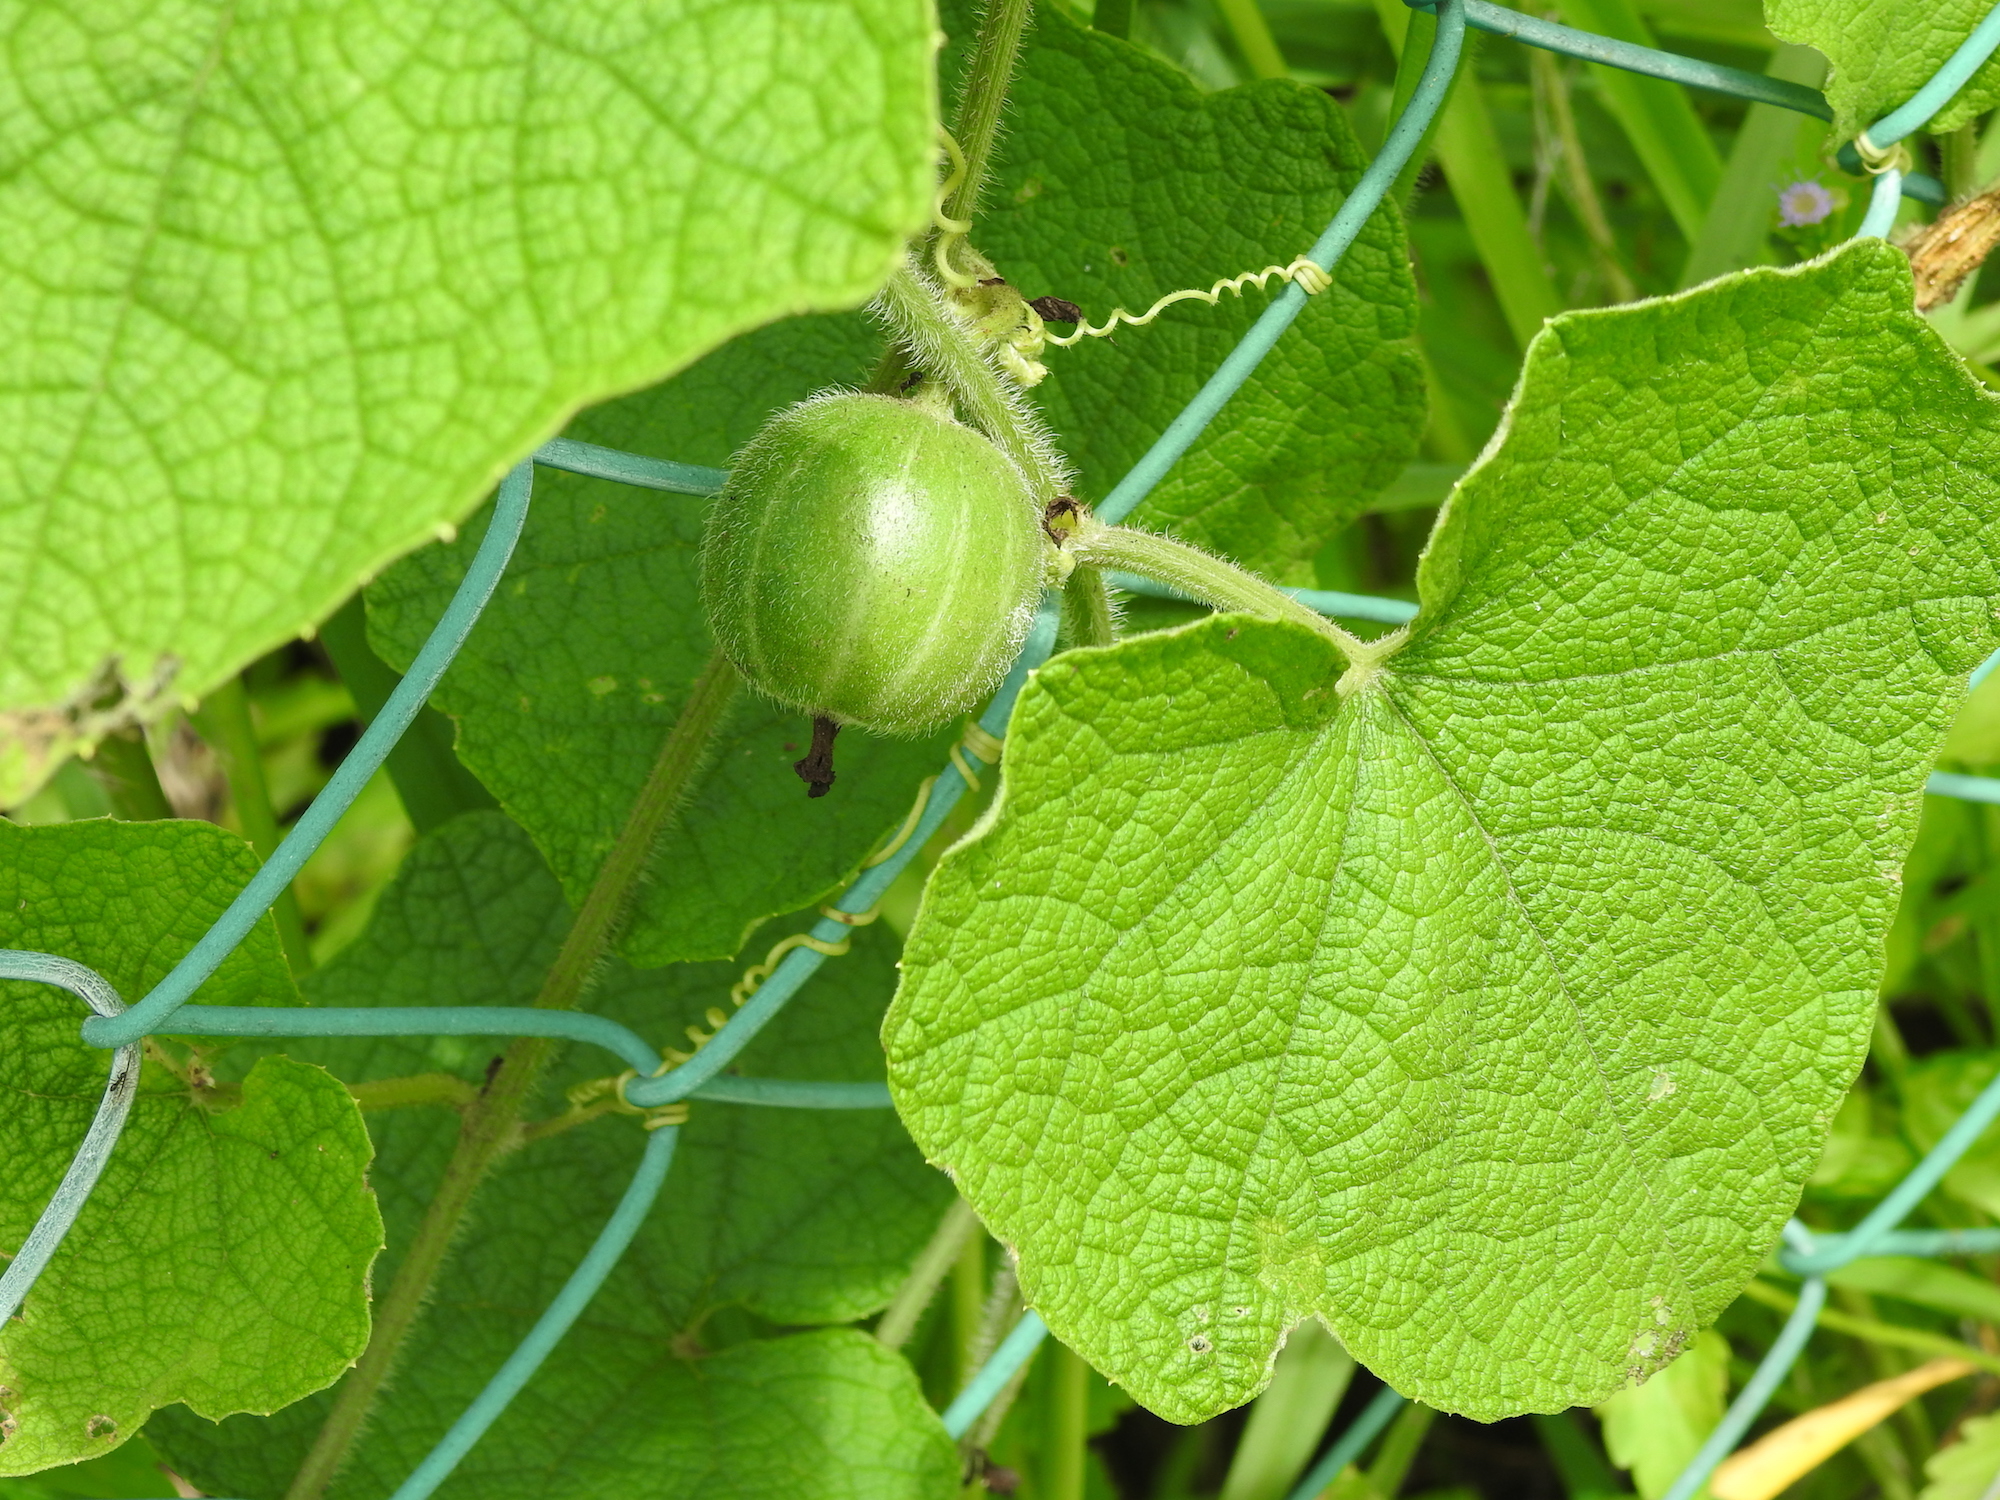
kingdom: Plantae
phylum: Tracheophyta
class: Magnoliopsida
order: Cucurbitales
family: Cucurbitaceae
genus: Trichosanthes
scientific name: Trichosanthes scabra
